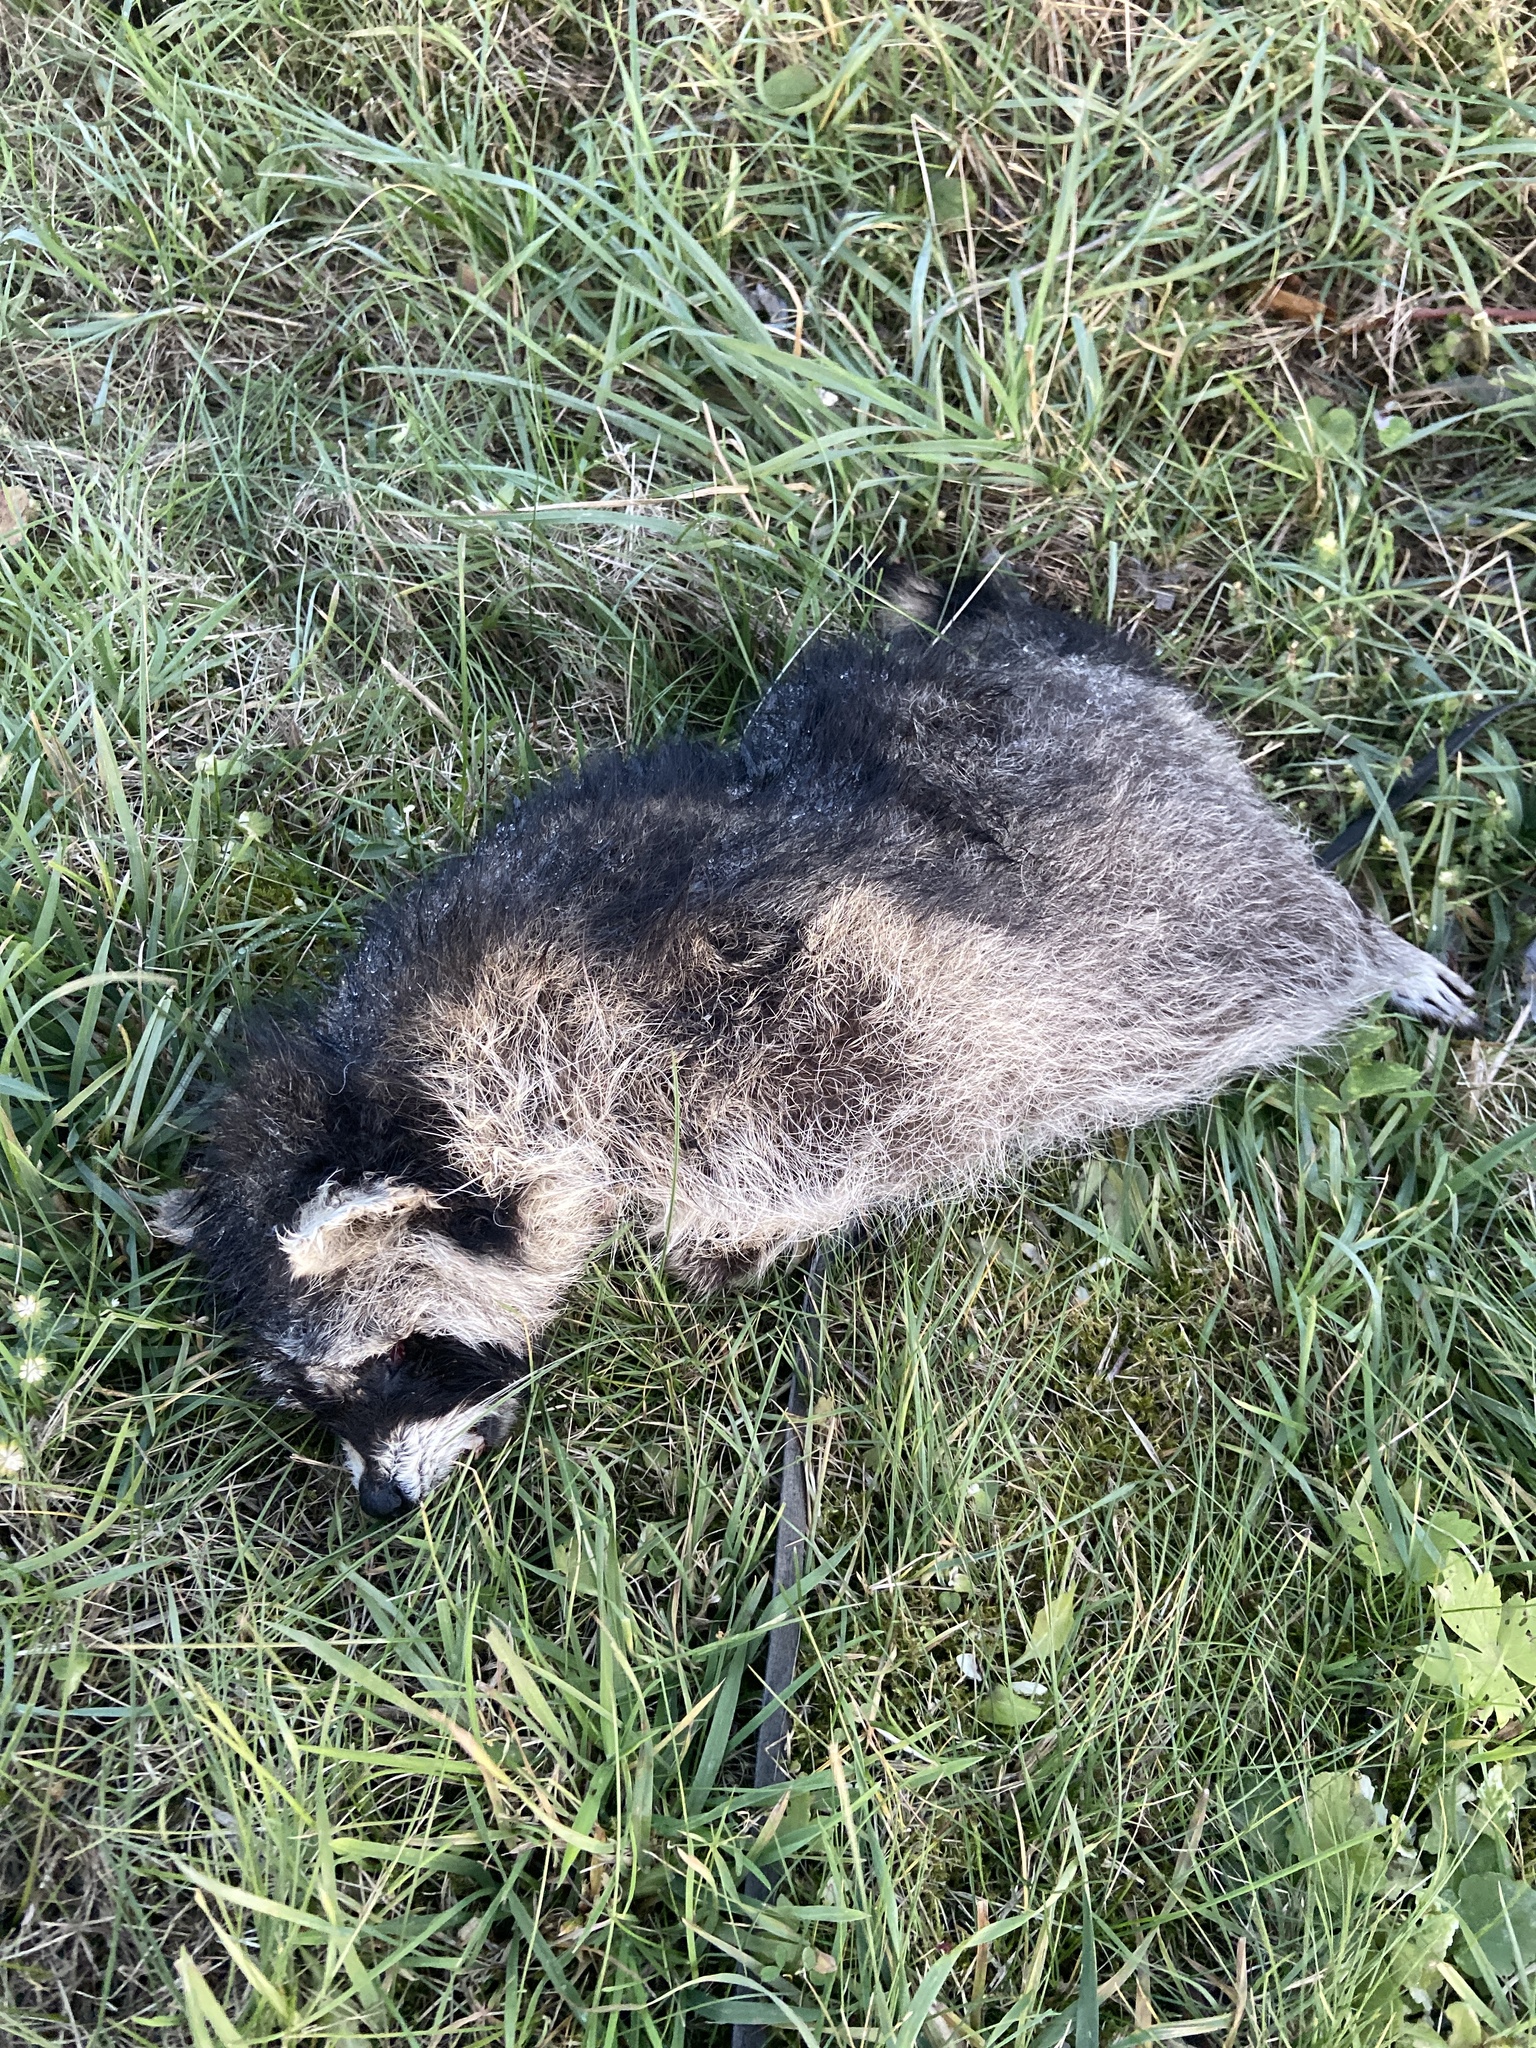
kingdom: Animalia
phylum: Chordata
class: Mammalia
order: Carnivora
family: Procyonidae
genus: Procyon
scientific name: Procyon lotor
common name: Raccoon
